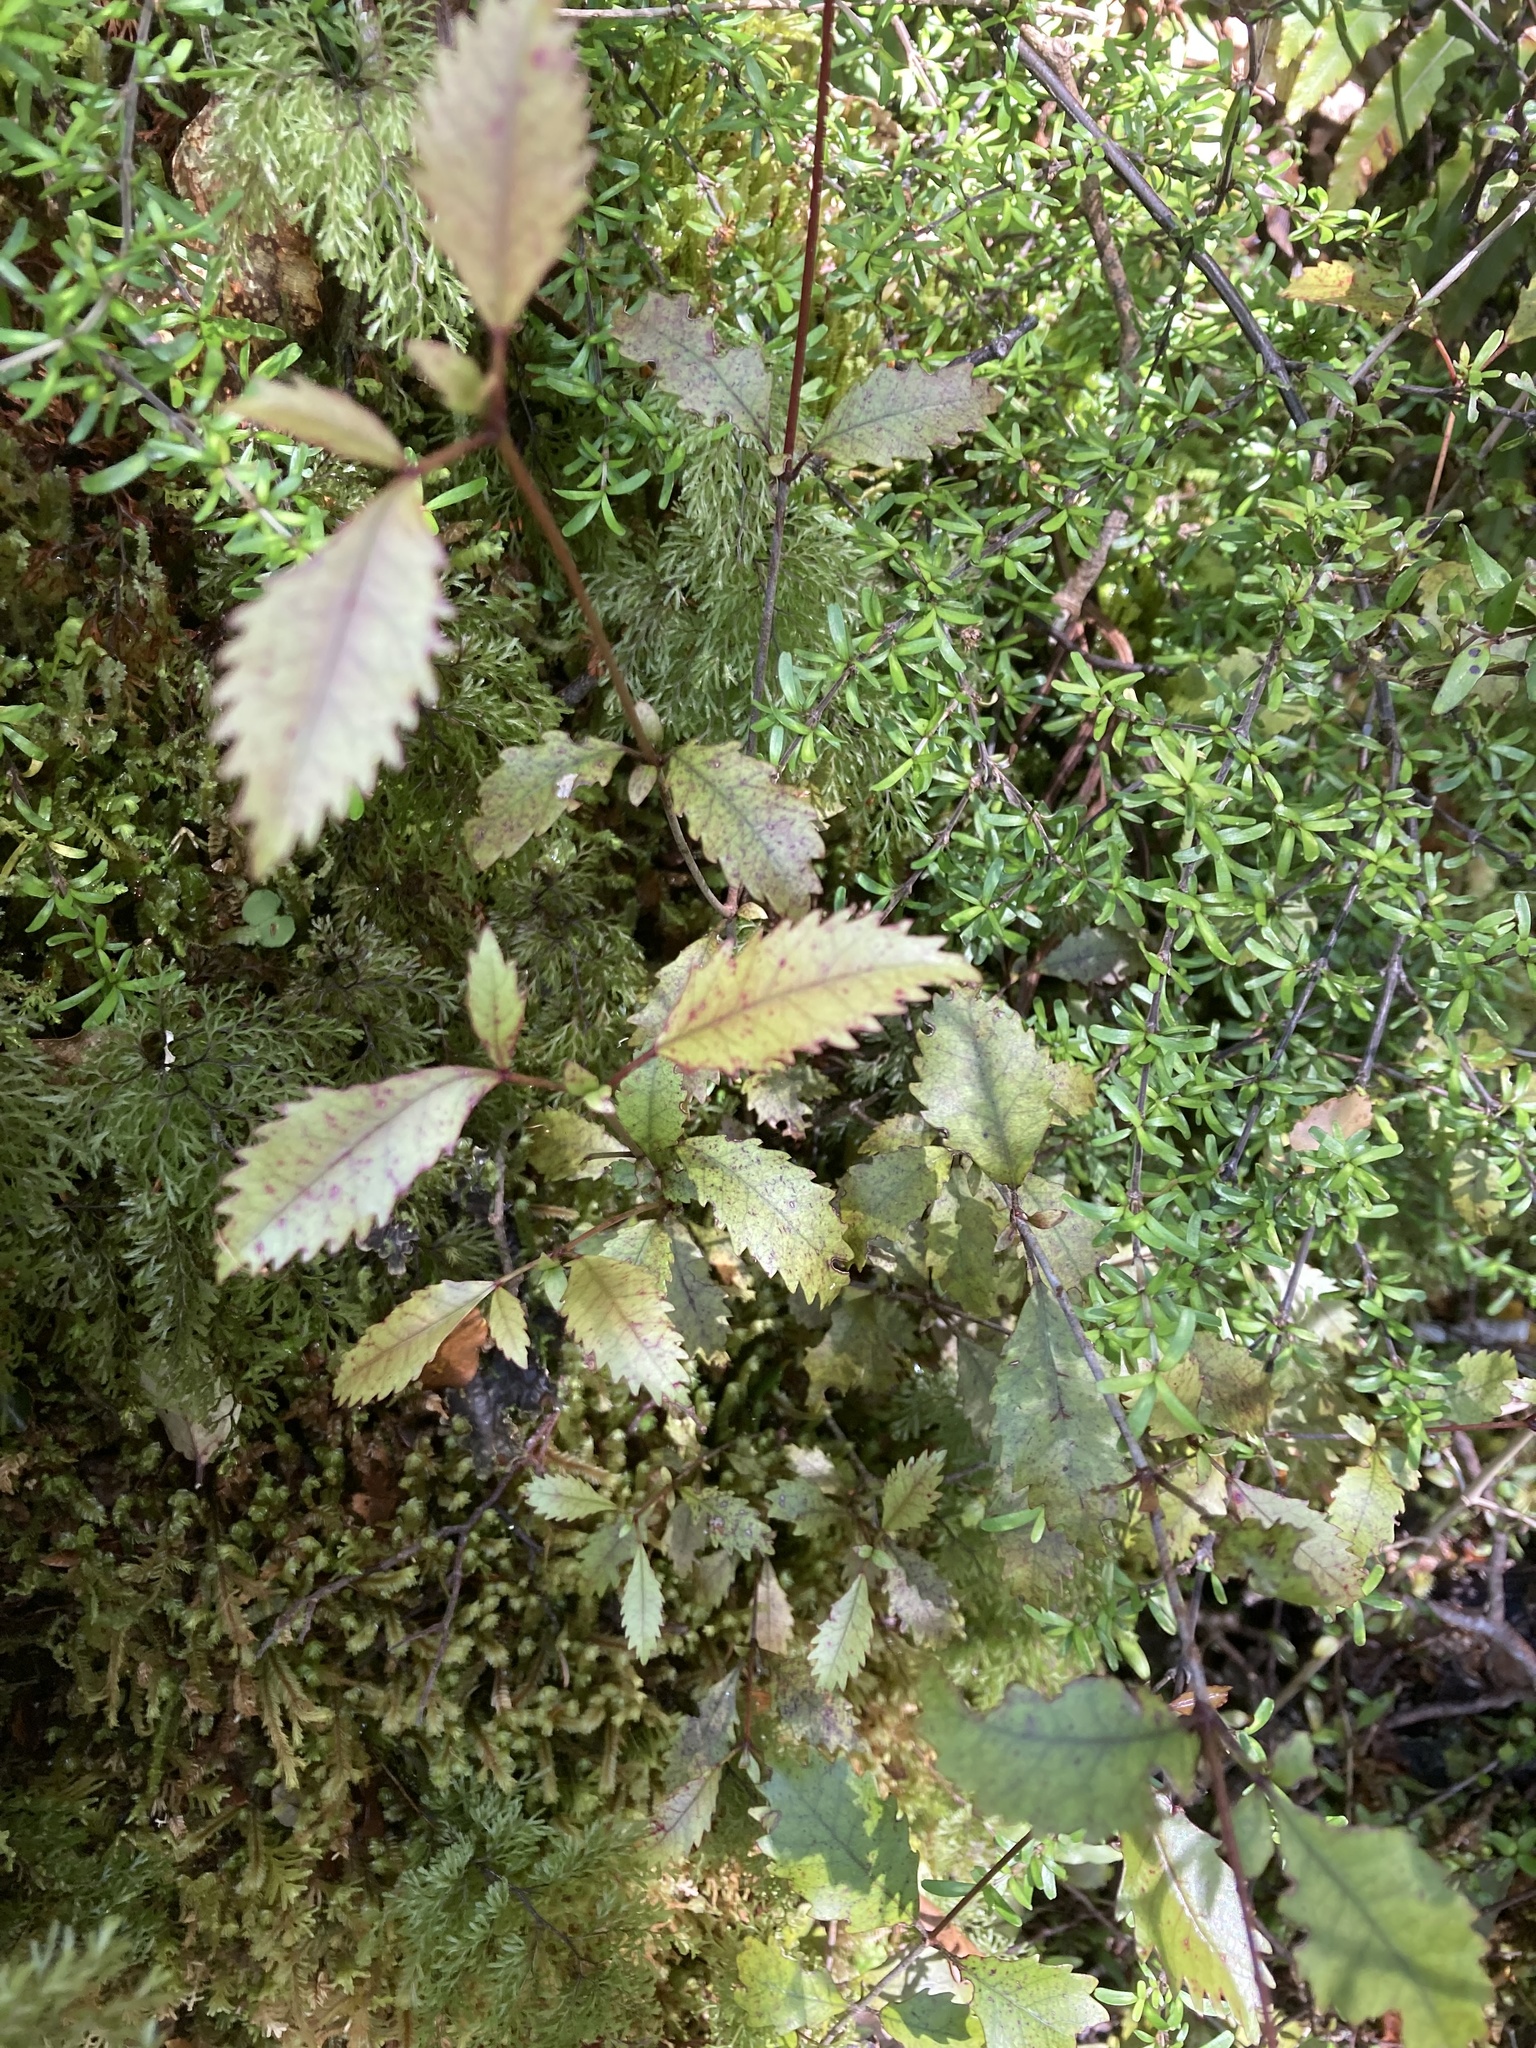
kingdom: Plantae
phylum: Tracheophyta
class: Magnoliopsida
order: Oxalidales
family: Cunoniaceae
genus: Pterophylla
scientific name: Pterophylla racemosa
